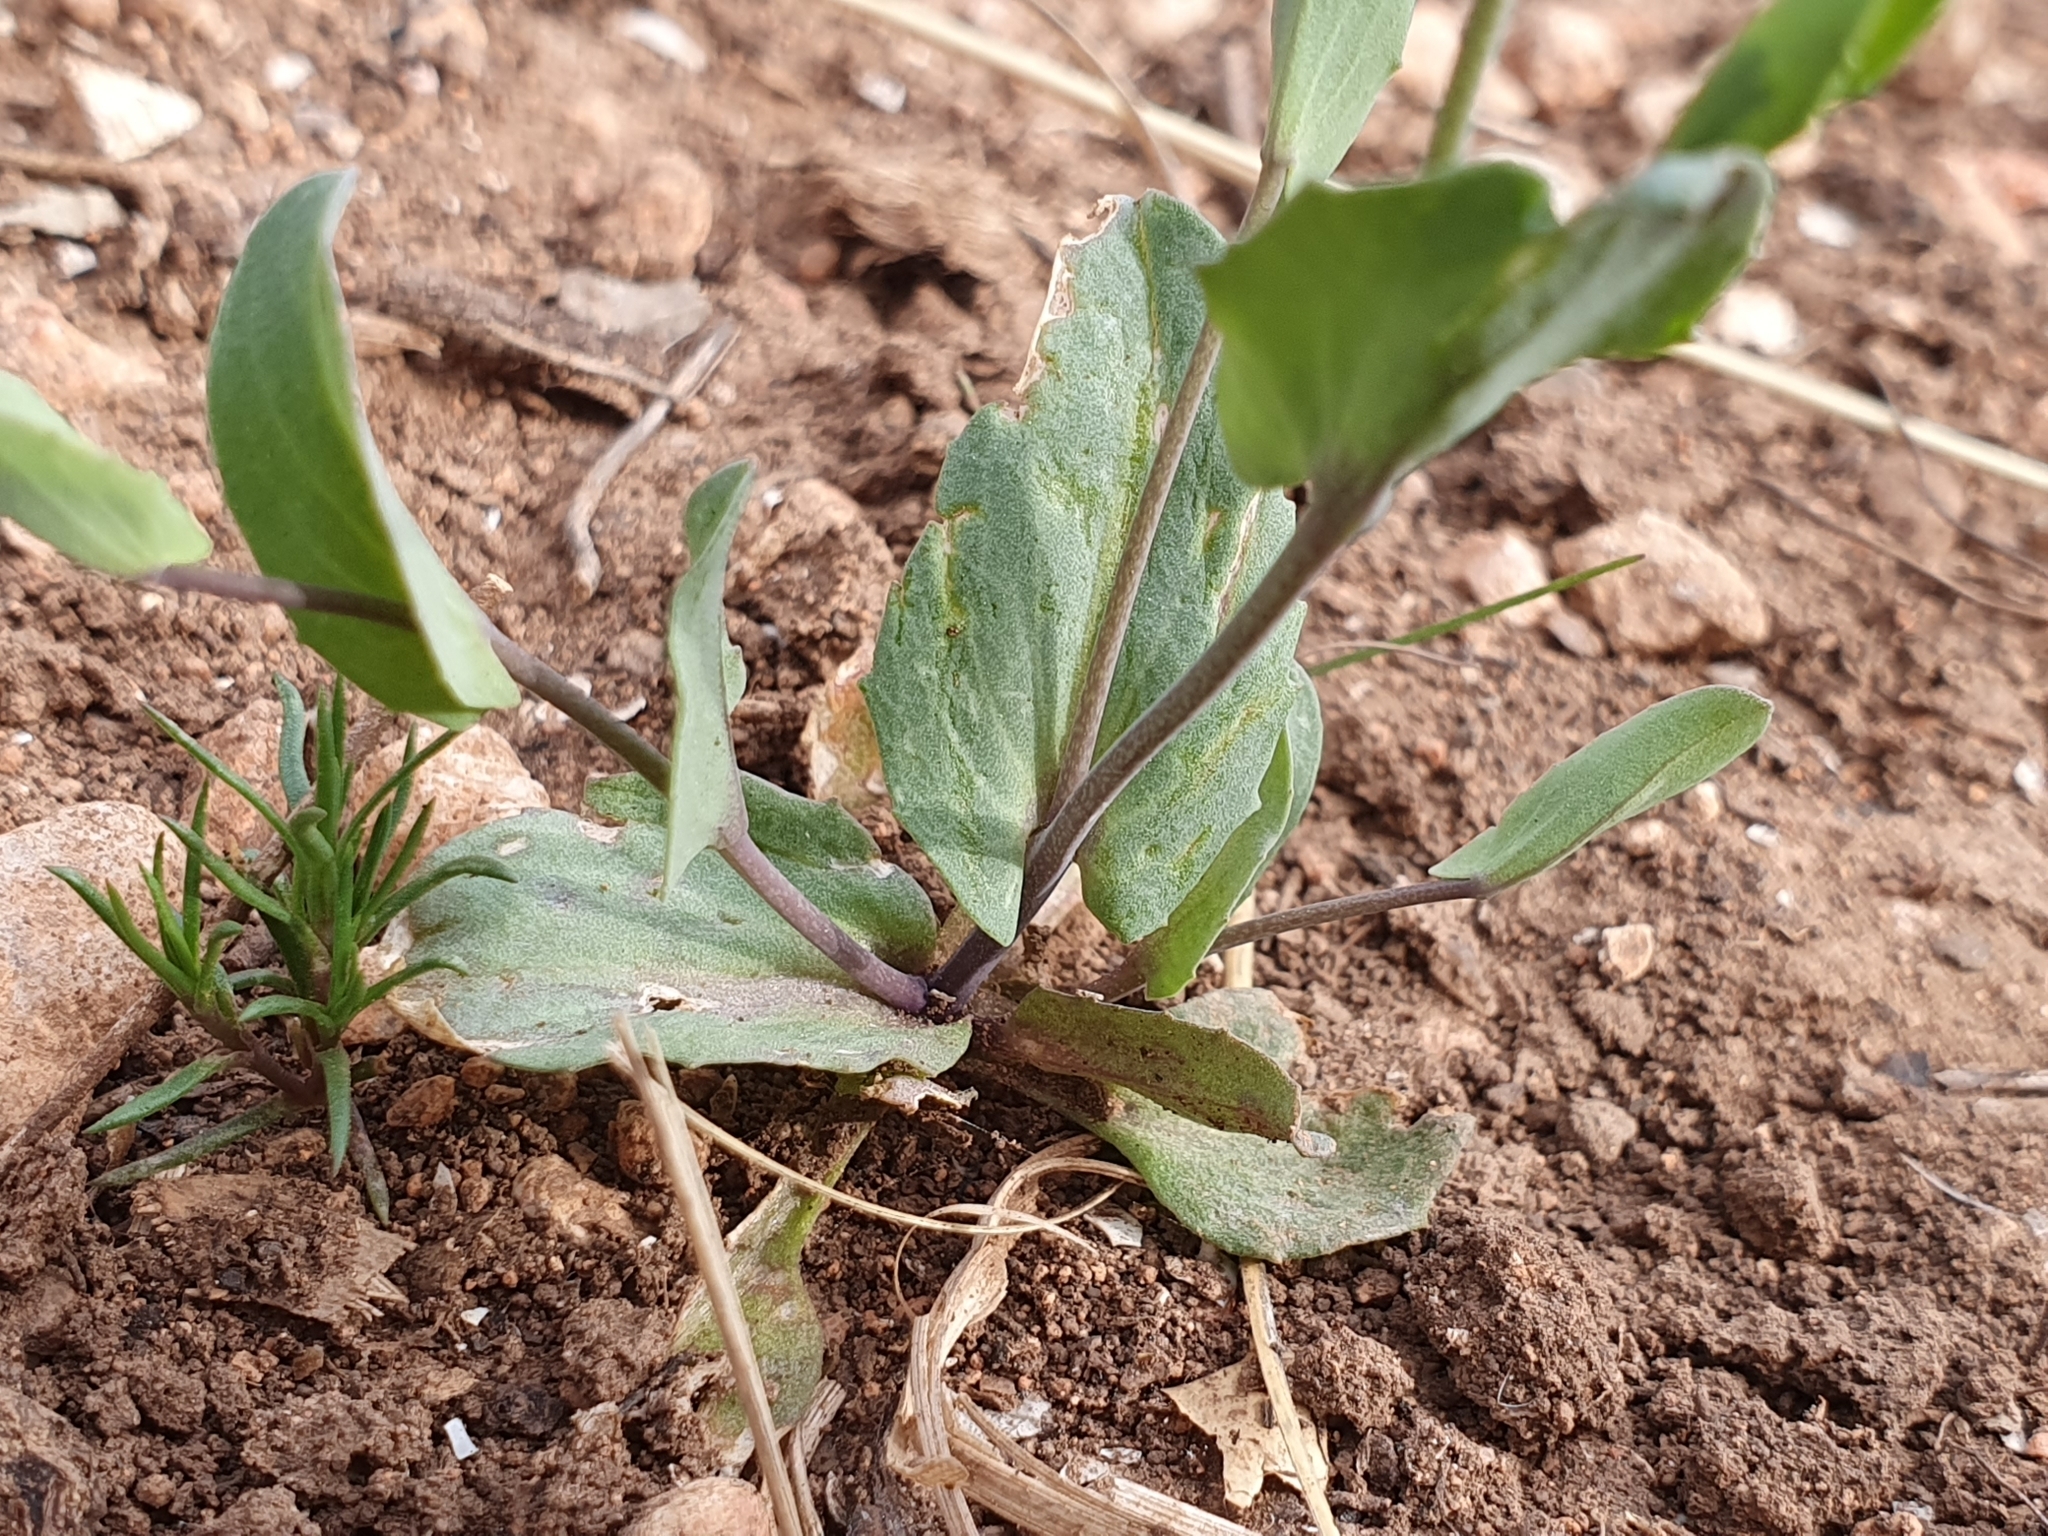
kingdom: Plantae
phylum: Tracheophyta
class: Magnoliopsida
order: Brassicales
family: Brassicaceae
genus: Noccaea
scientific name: Noccaea perfoliata
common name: Perfoliate pennycress
